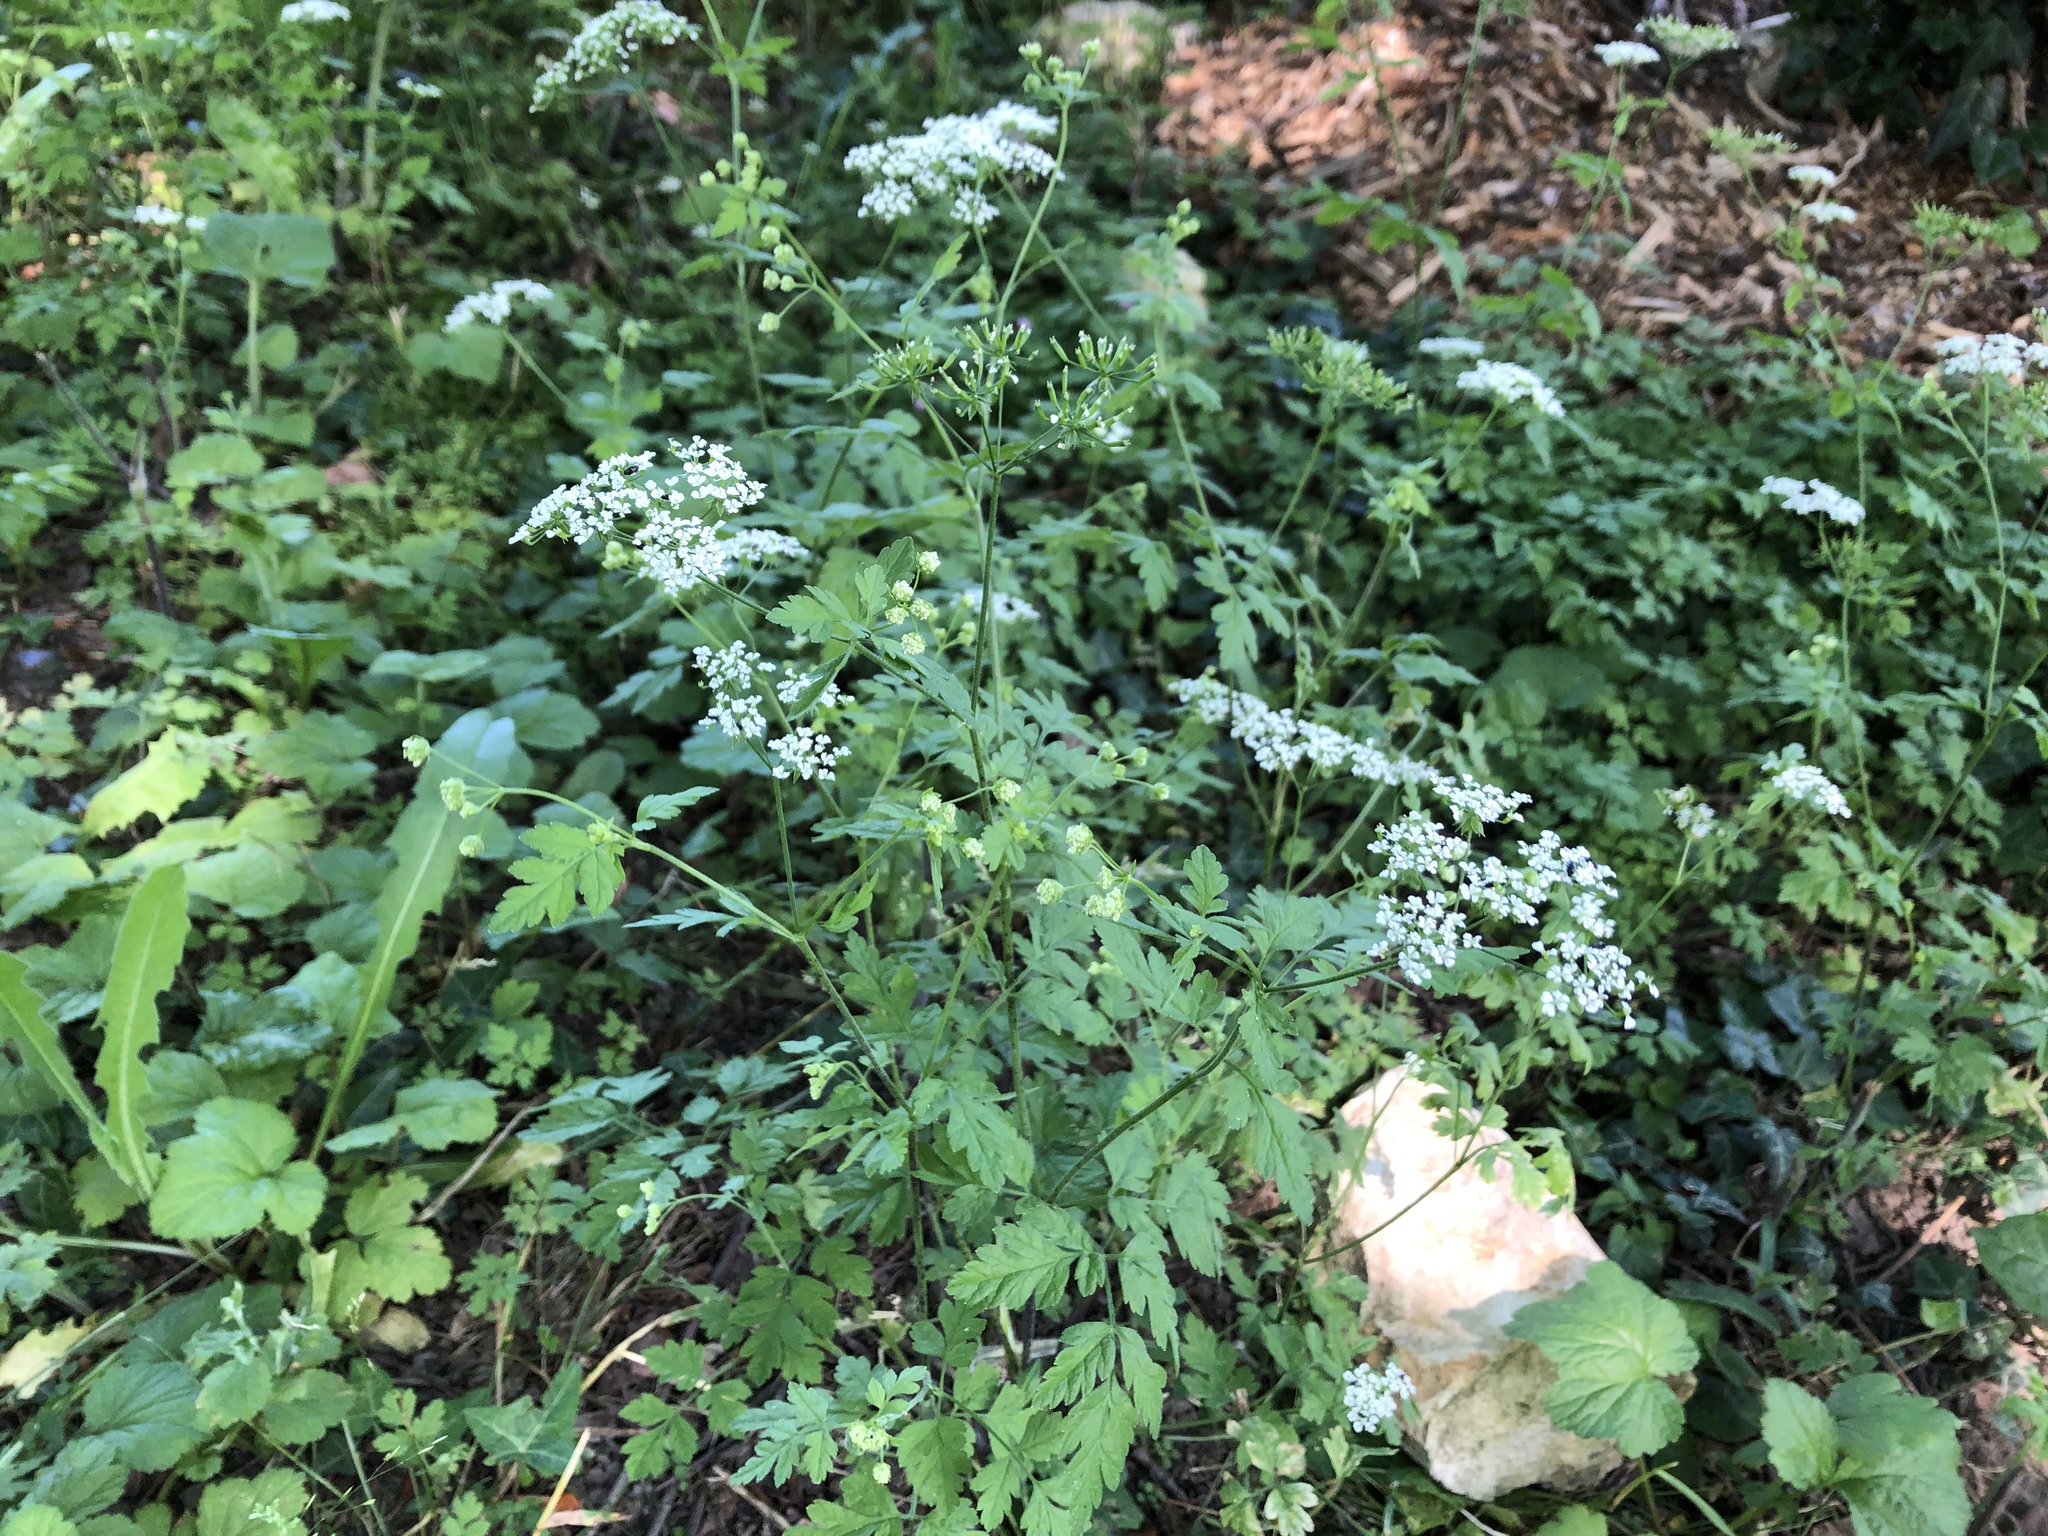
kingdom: Plantae
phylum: Tracheophyta
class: Magnoliopsida
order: Apiales
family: Apiaceae
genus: Chaerophyllum
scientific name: Chaerophyllum temulum
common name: Rough chervil
